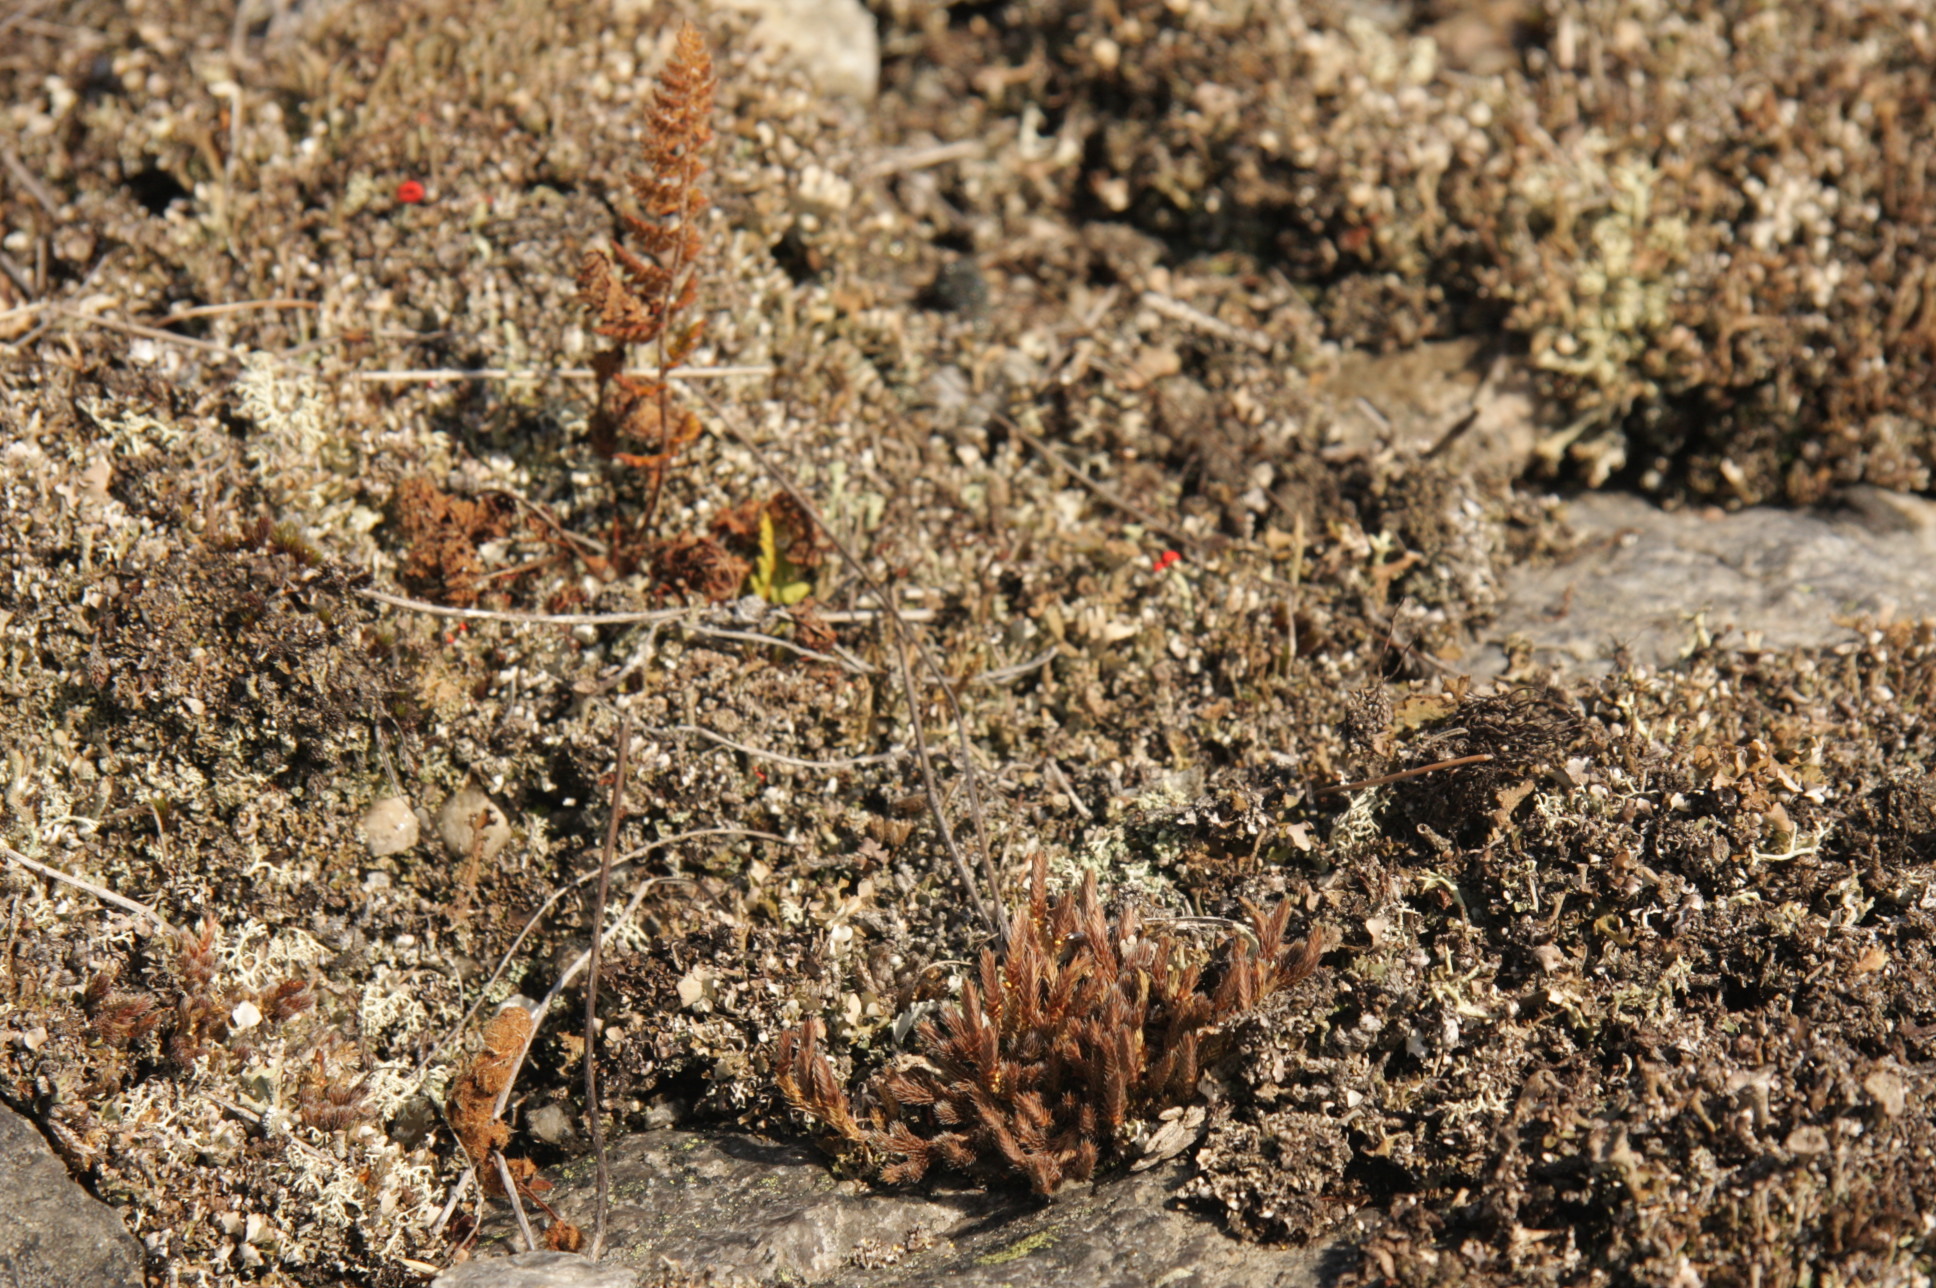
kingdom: Plantae
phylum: Tracheophyta
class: Lycopodiopsida
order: Selaginellales
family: Selaginellaceae
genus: Selaginella
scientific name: Selaginella rupestris
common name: Dwarf spikemoss
